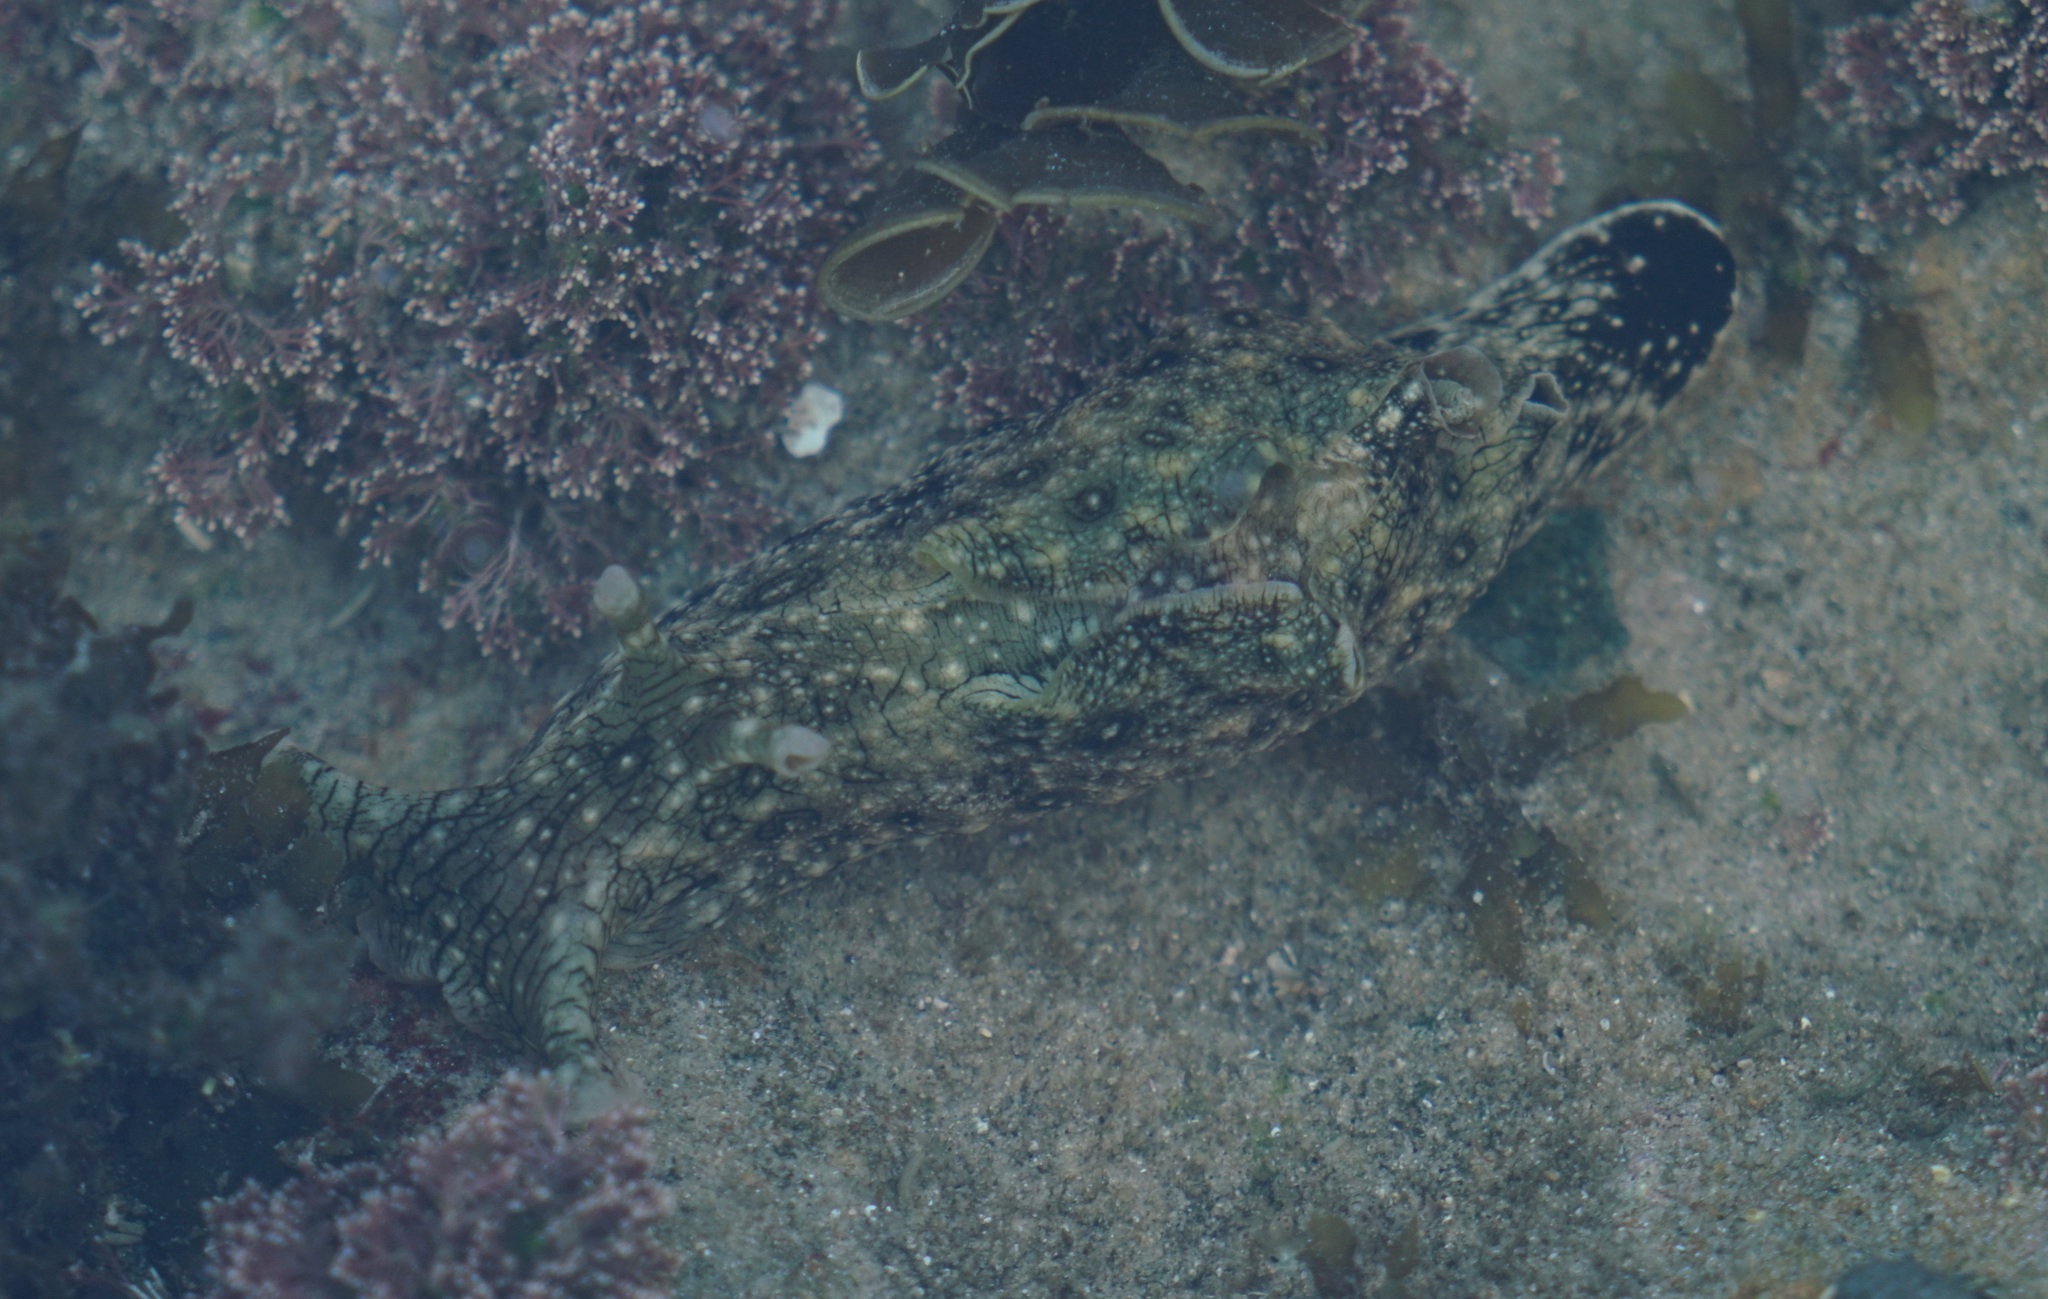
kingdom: Animalia
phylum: Mollusca
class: Gastropoda
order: Aplysiida
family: Aplysiidae
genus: Aplysia
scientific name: Aplysia argus
